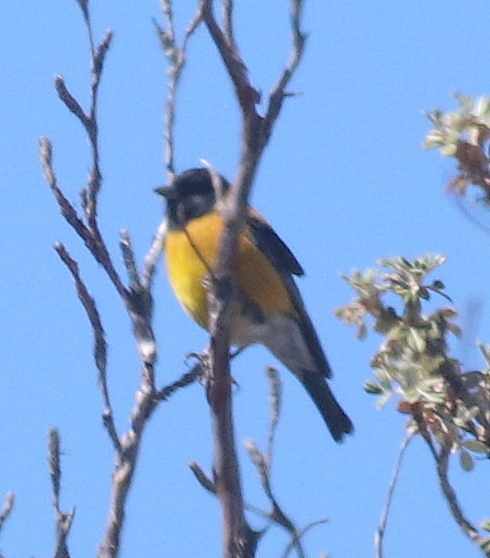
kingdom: Animalia
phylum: Chordata
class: Aves
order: Passeriformes
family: Thraupidae
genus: Phrygilus
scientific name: Phrygilus atriceps
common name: Black-hooded sierra finch
